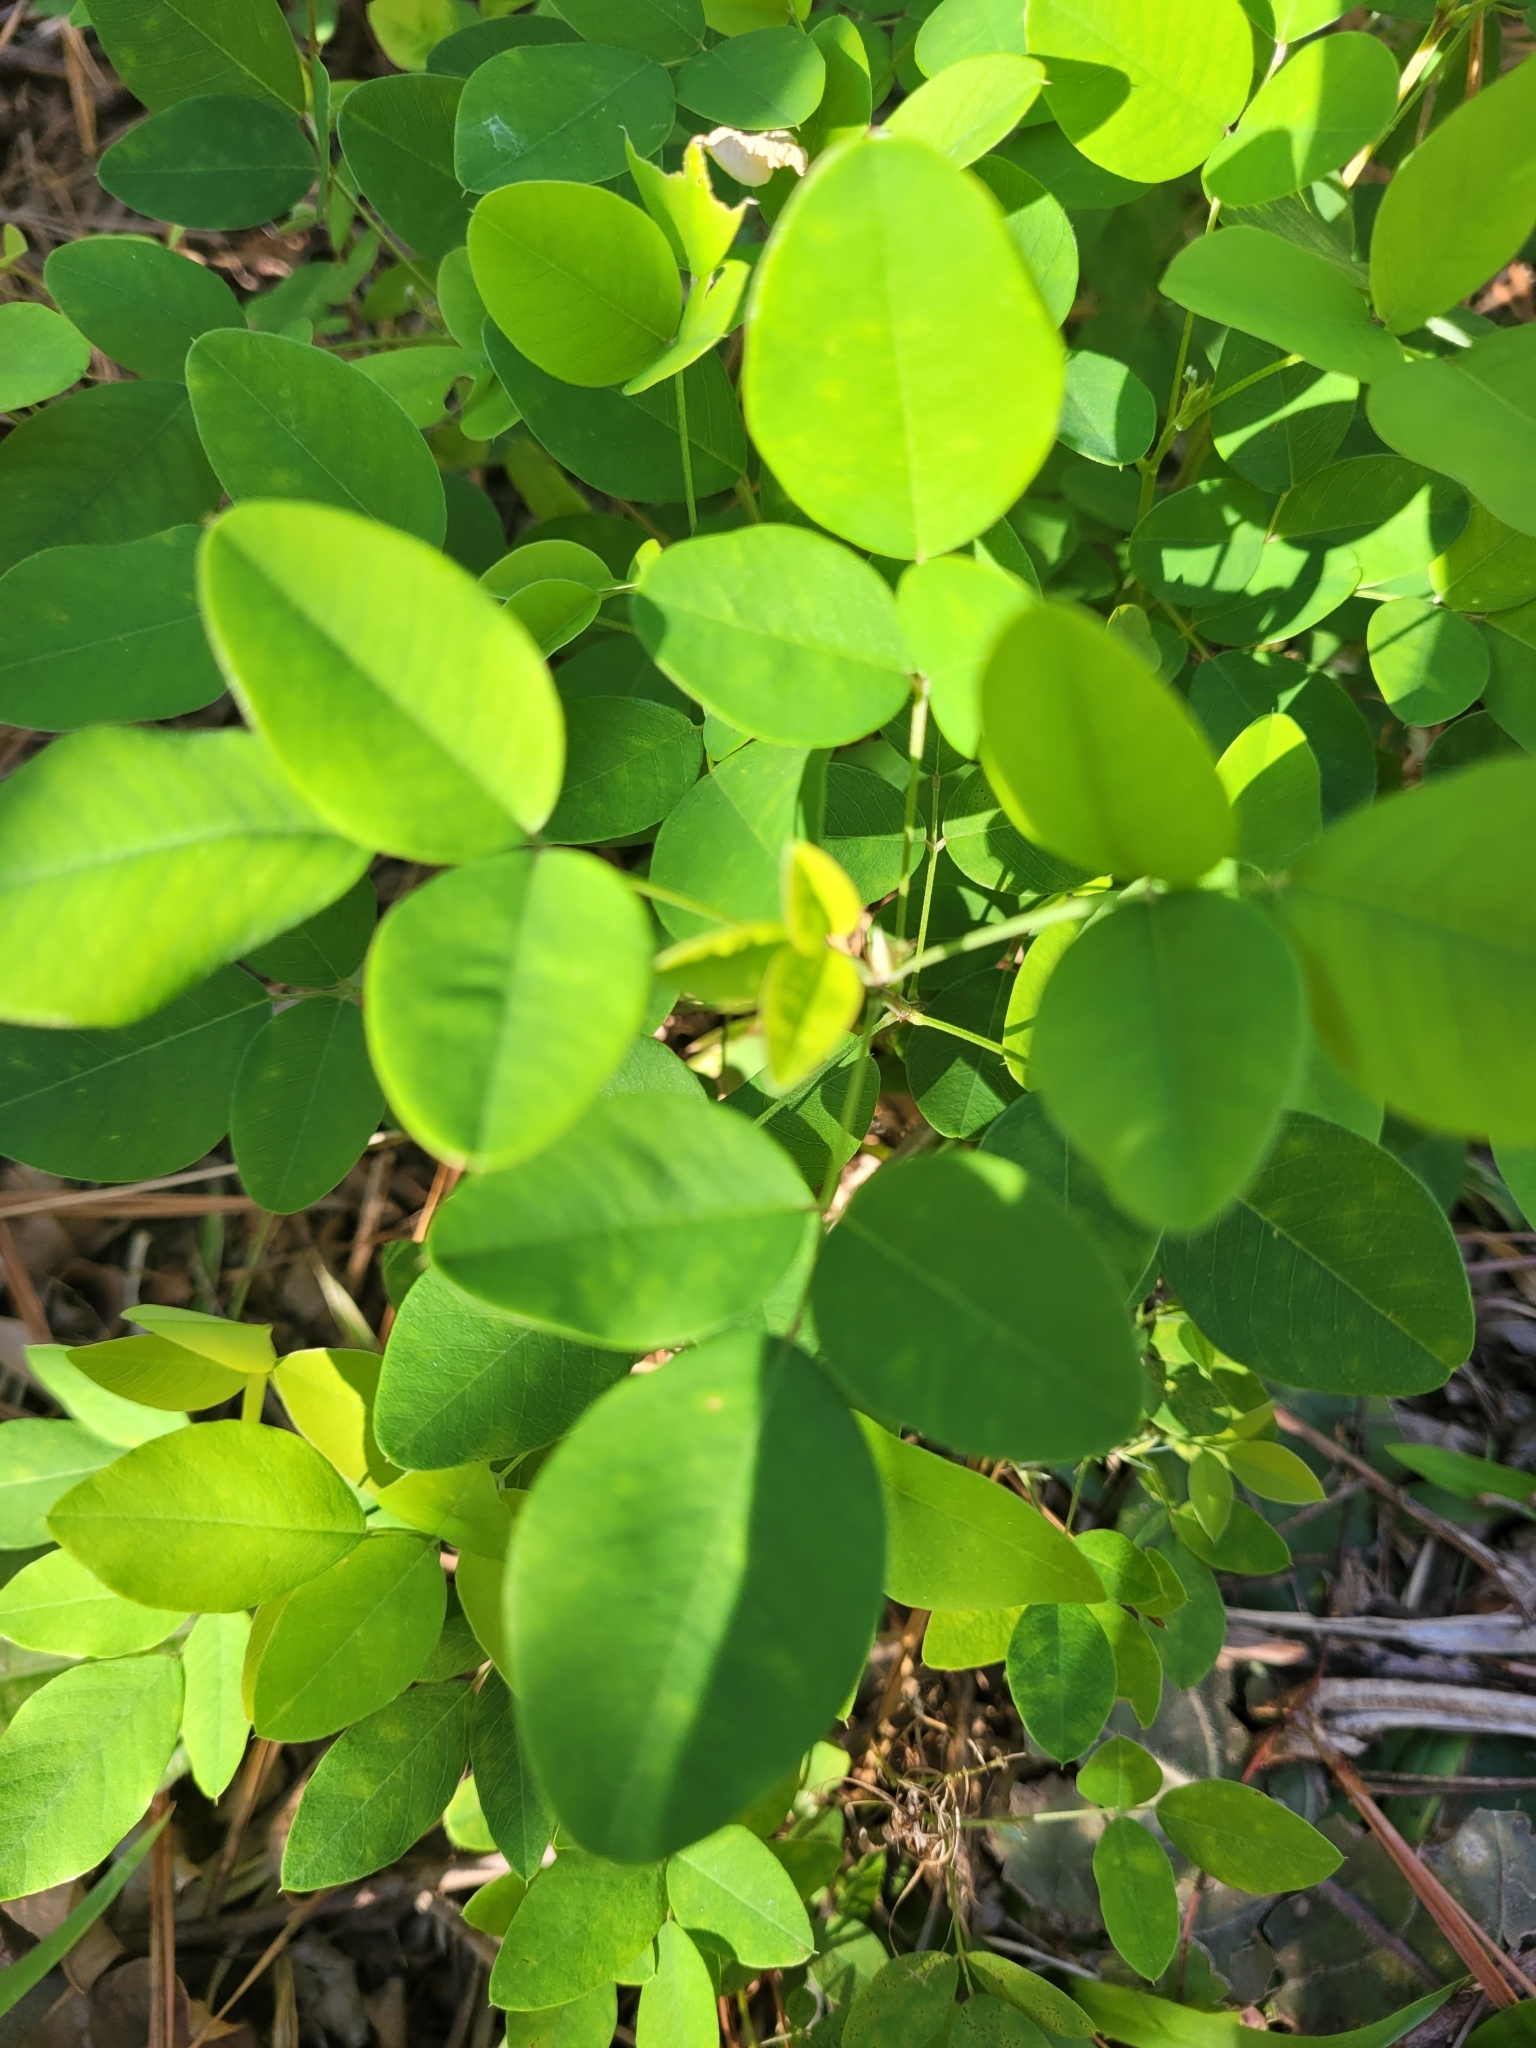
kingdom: Plantae
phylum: Tracheophyta
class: Magnoliopsida
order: Fabales
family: Fabaceae
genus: Lespedeza
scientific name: Lespedeza bicolor
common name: Shrub lespedeza
